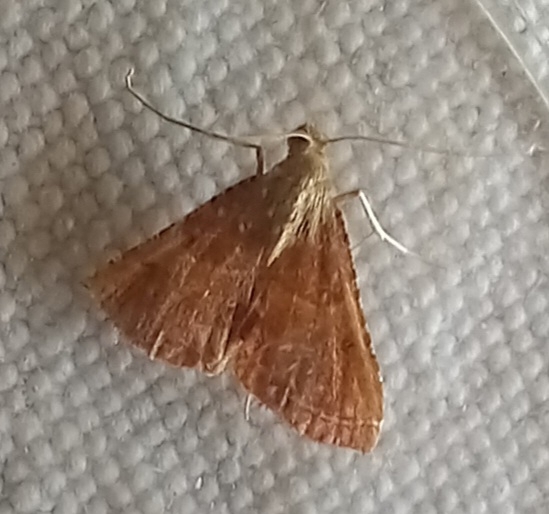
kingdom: Animalia
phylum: Arthropoda
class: Insecta
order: Lepidoptera
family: Pyralidae
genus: Endotricha
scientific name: Endotricha flammealis
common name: Rosy tabby
